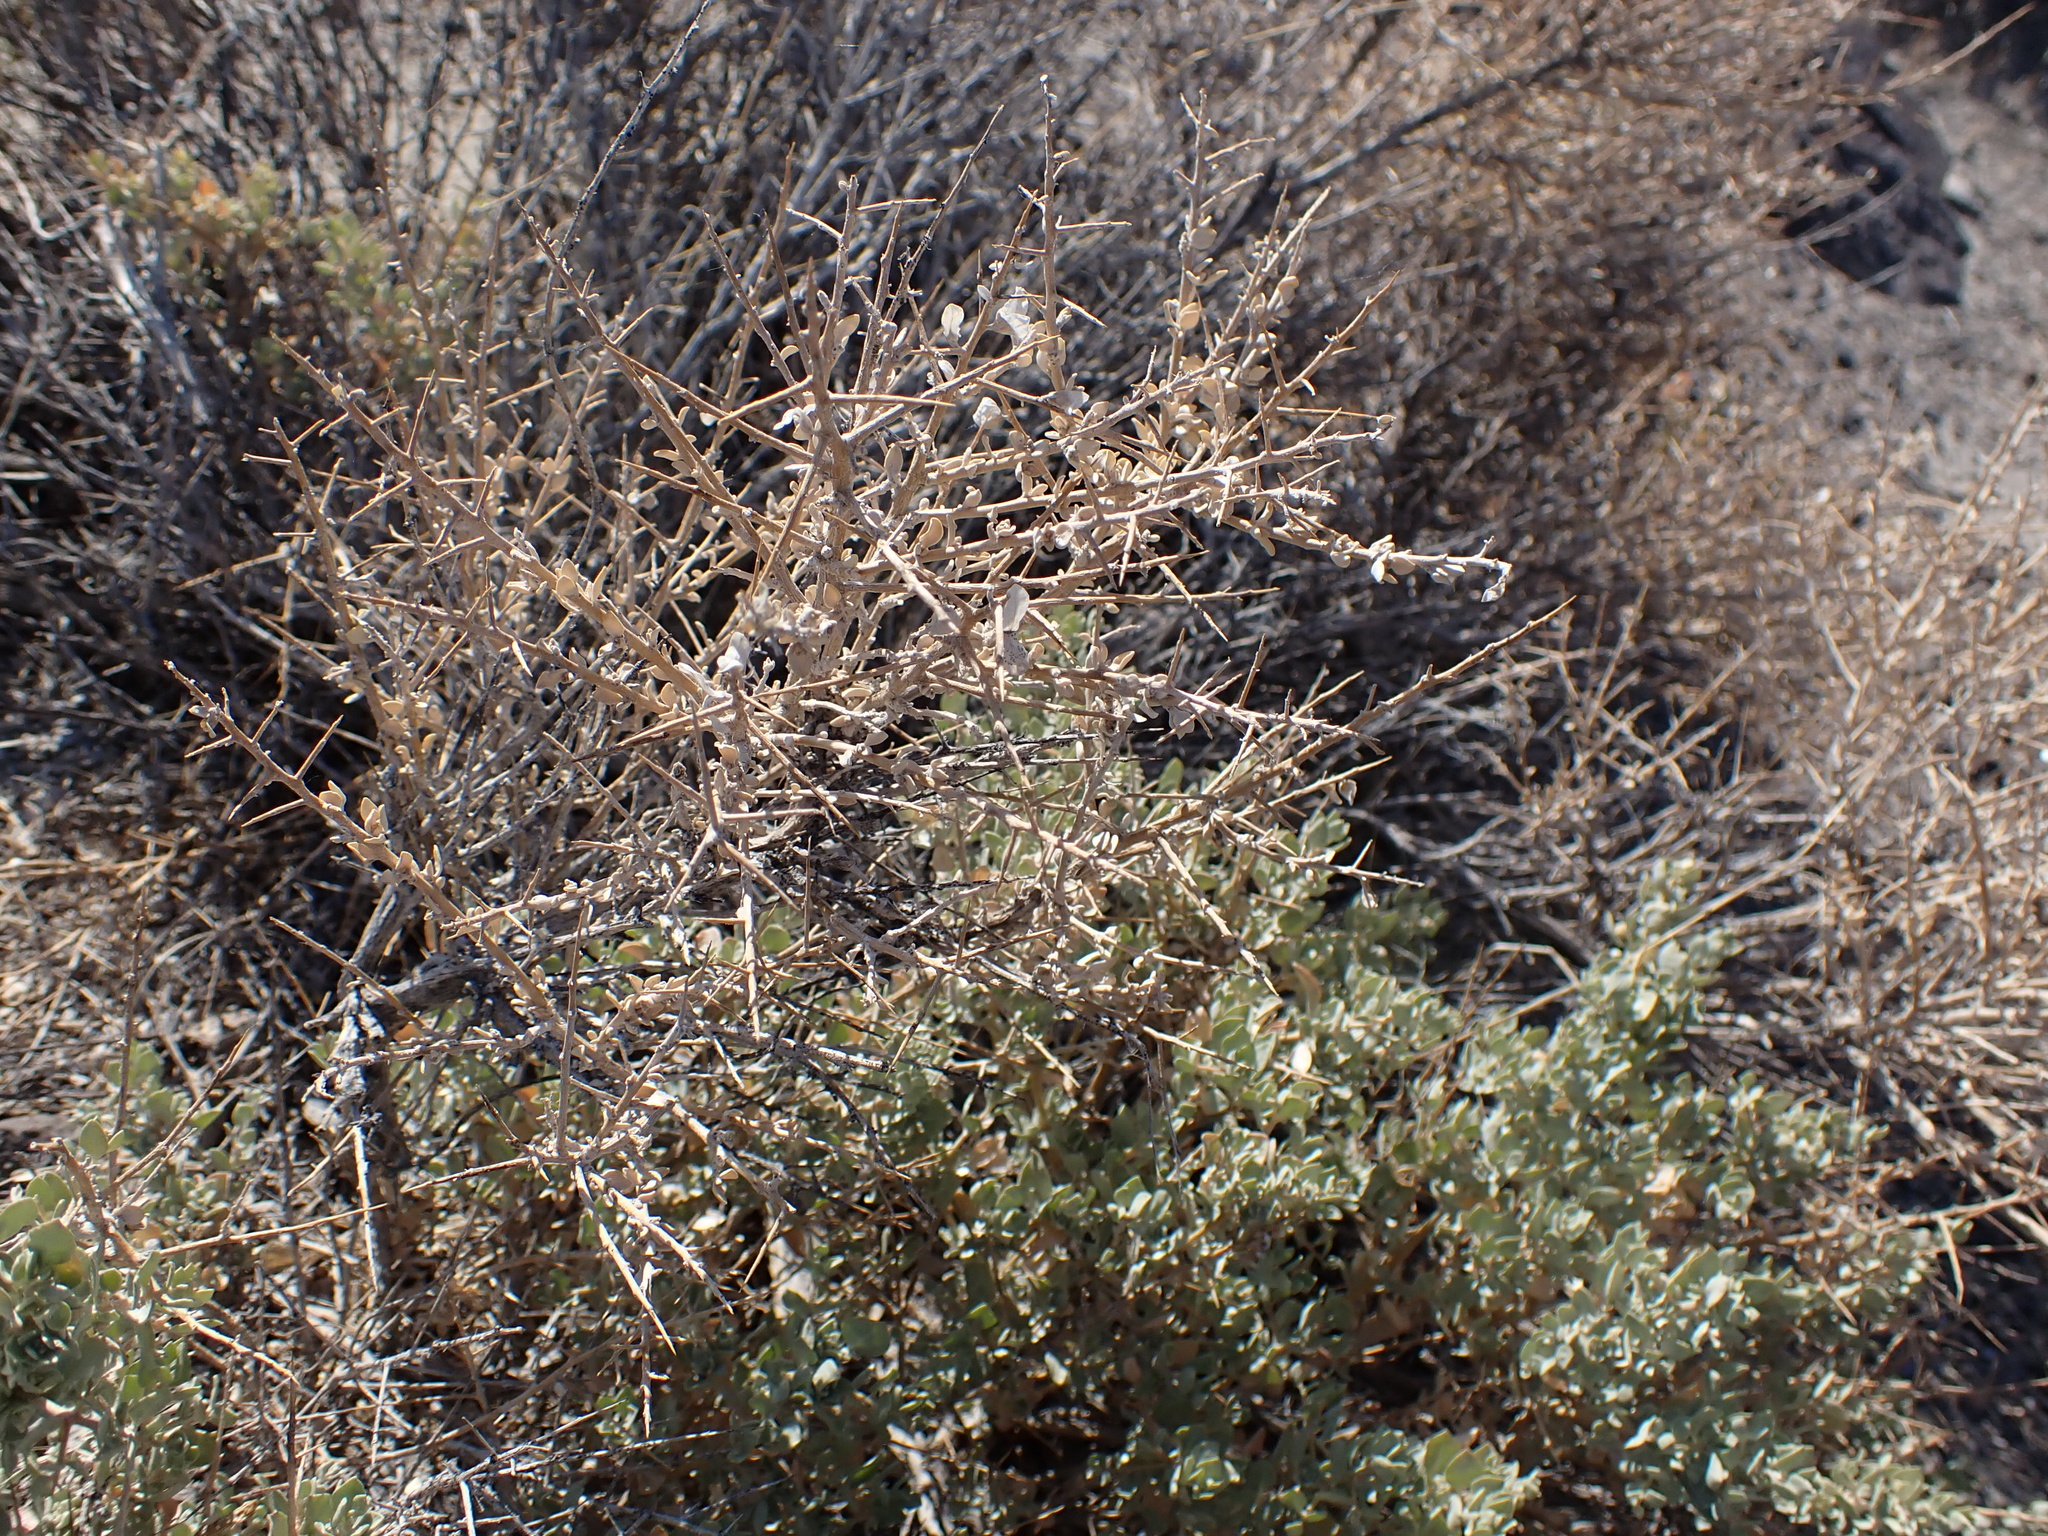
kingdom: Plantae
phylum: Tracheophyta
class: Magnoliopsida
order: Caryophyllales
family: Amaranthaceae
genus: Atriplex
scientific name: Atriplex confertifolia
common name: Shadscale
